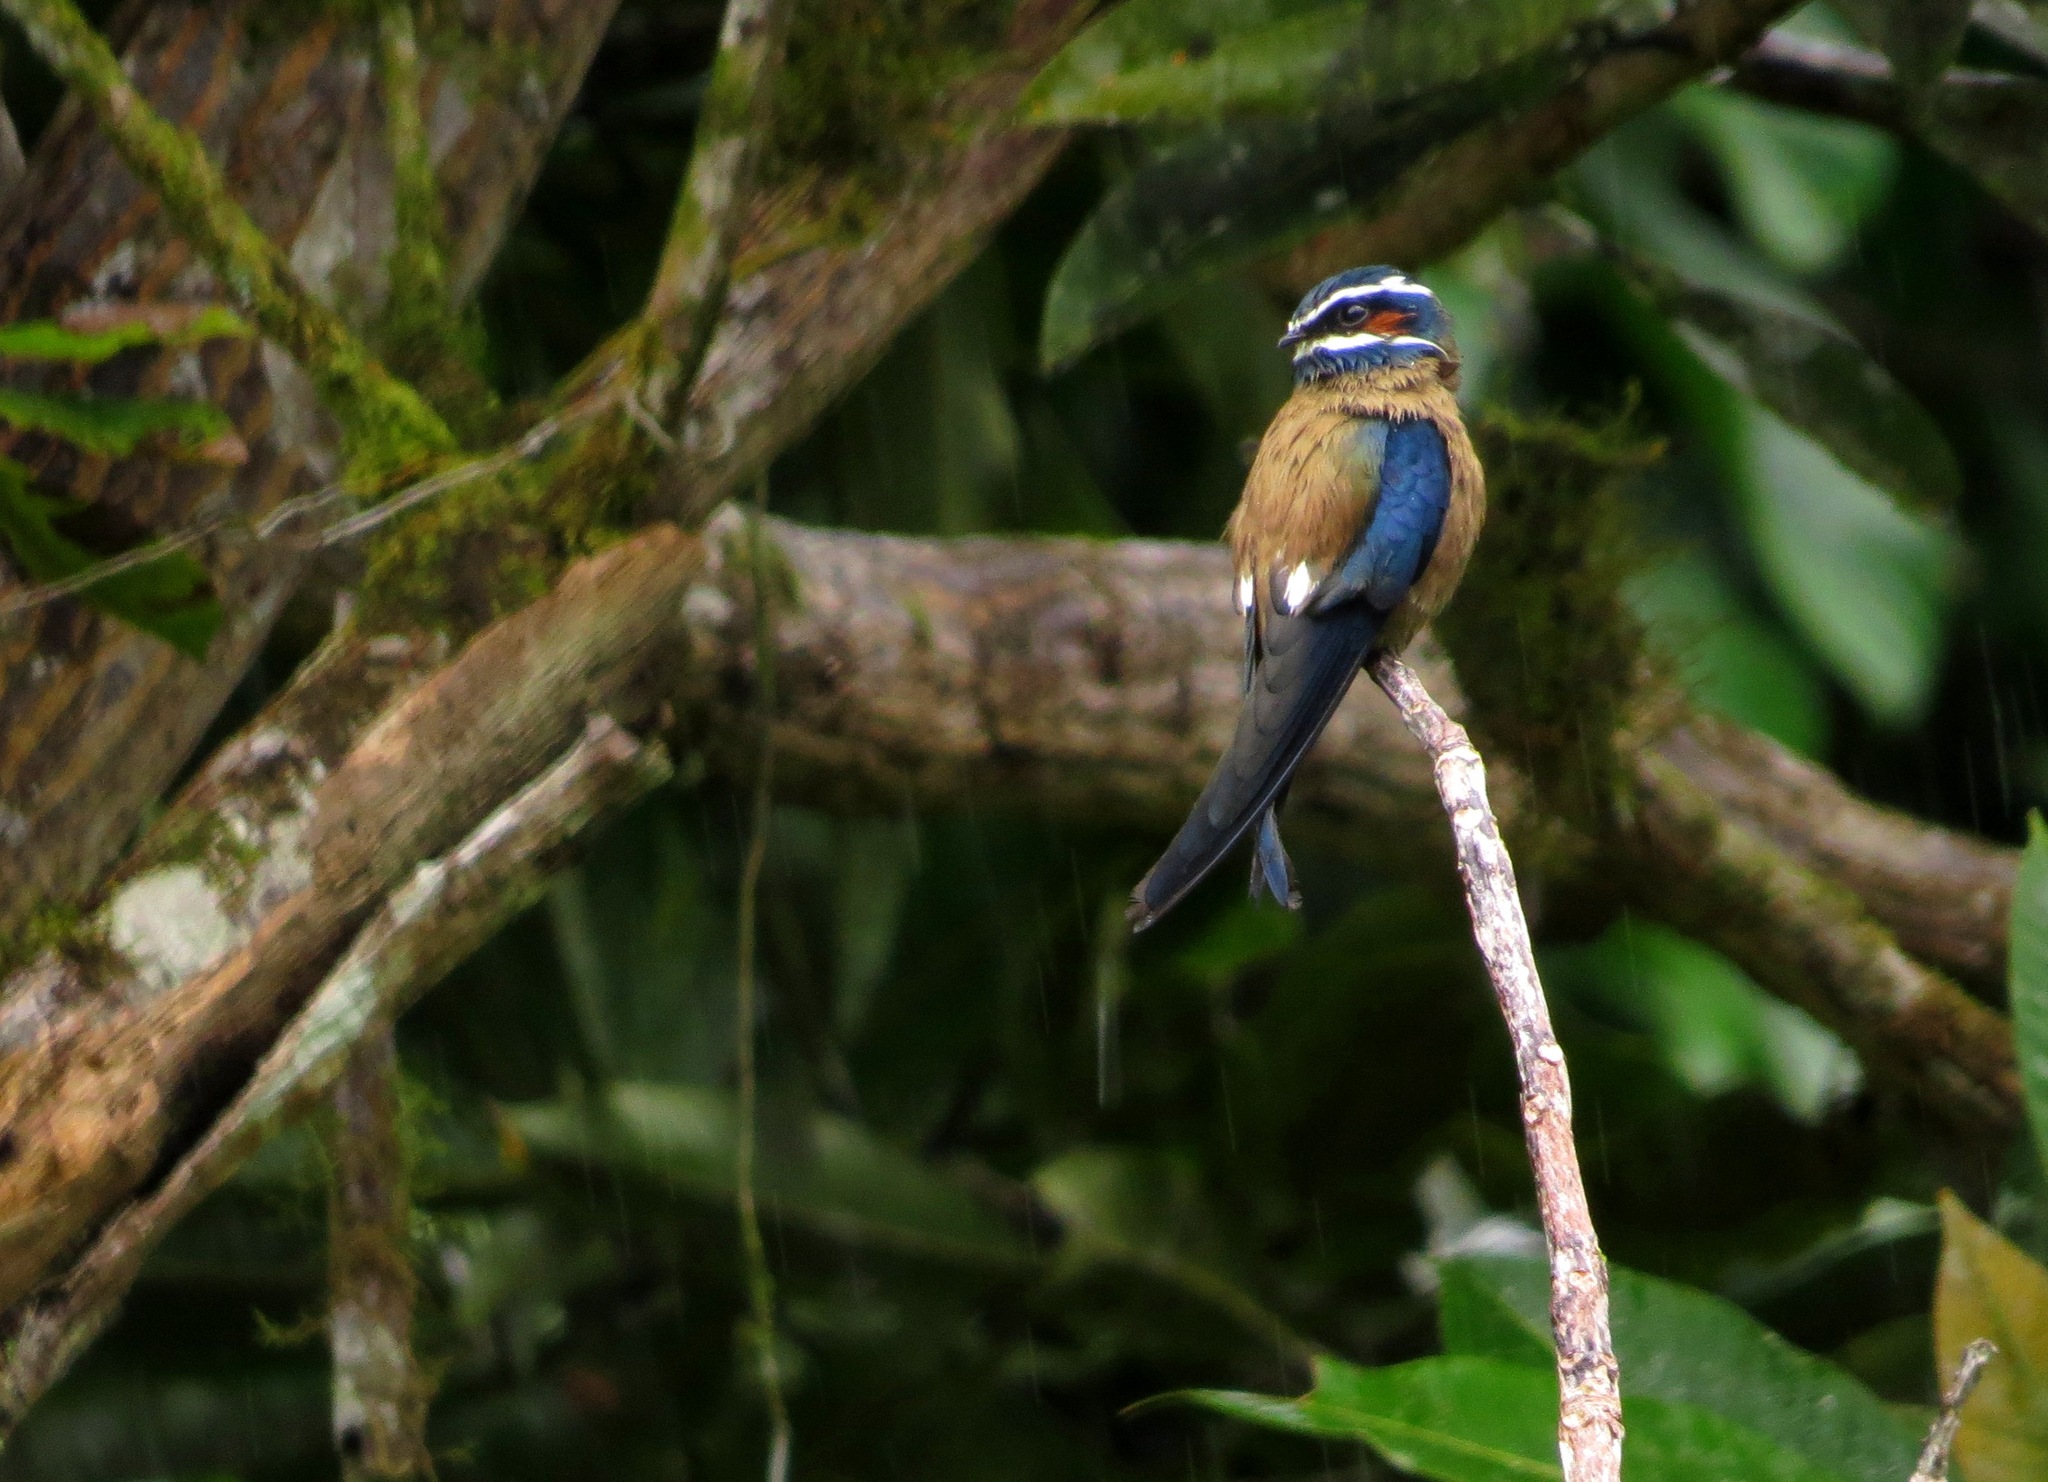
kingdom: Animalia
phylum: Chordata
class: Aves
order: Apodiformes
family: Hemiprocnidae
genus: Hemiprocne
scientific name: Hemiprocne comata
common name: Whiskered treeswift
